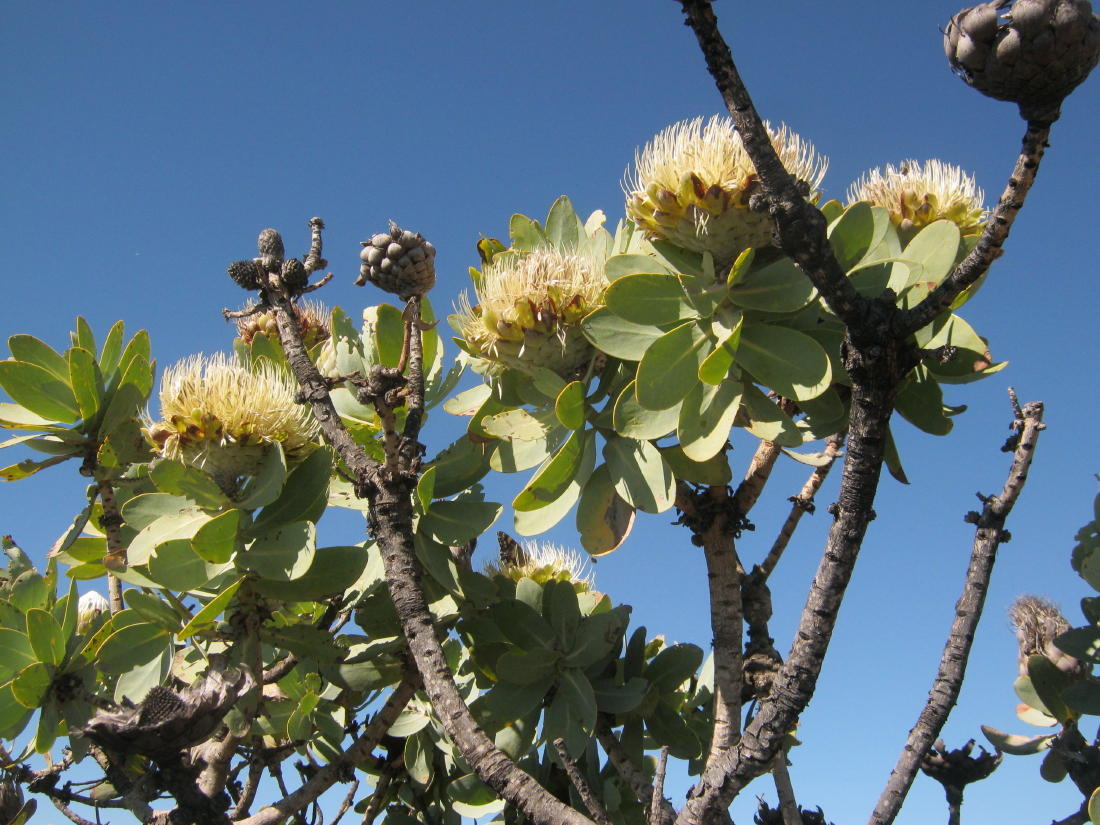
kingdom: Plantae
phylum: Tracheophyta
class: Magnoliopsida
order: Proteales
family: Proteaceae
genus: Protea
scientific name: Protea nitida
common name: Tree protea
